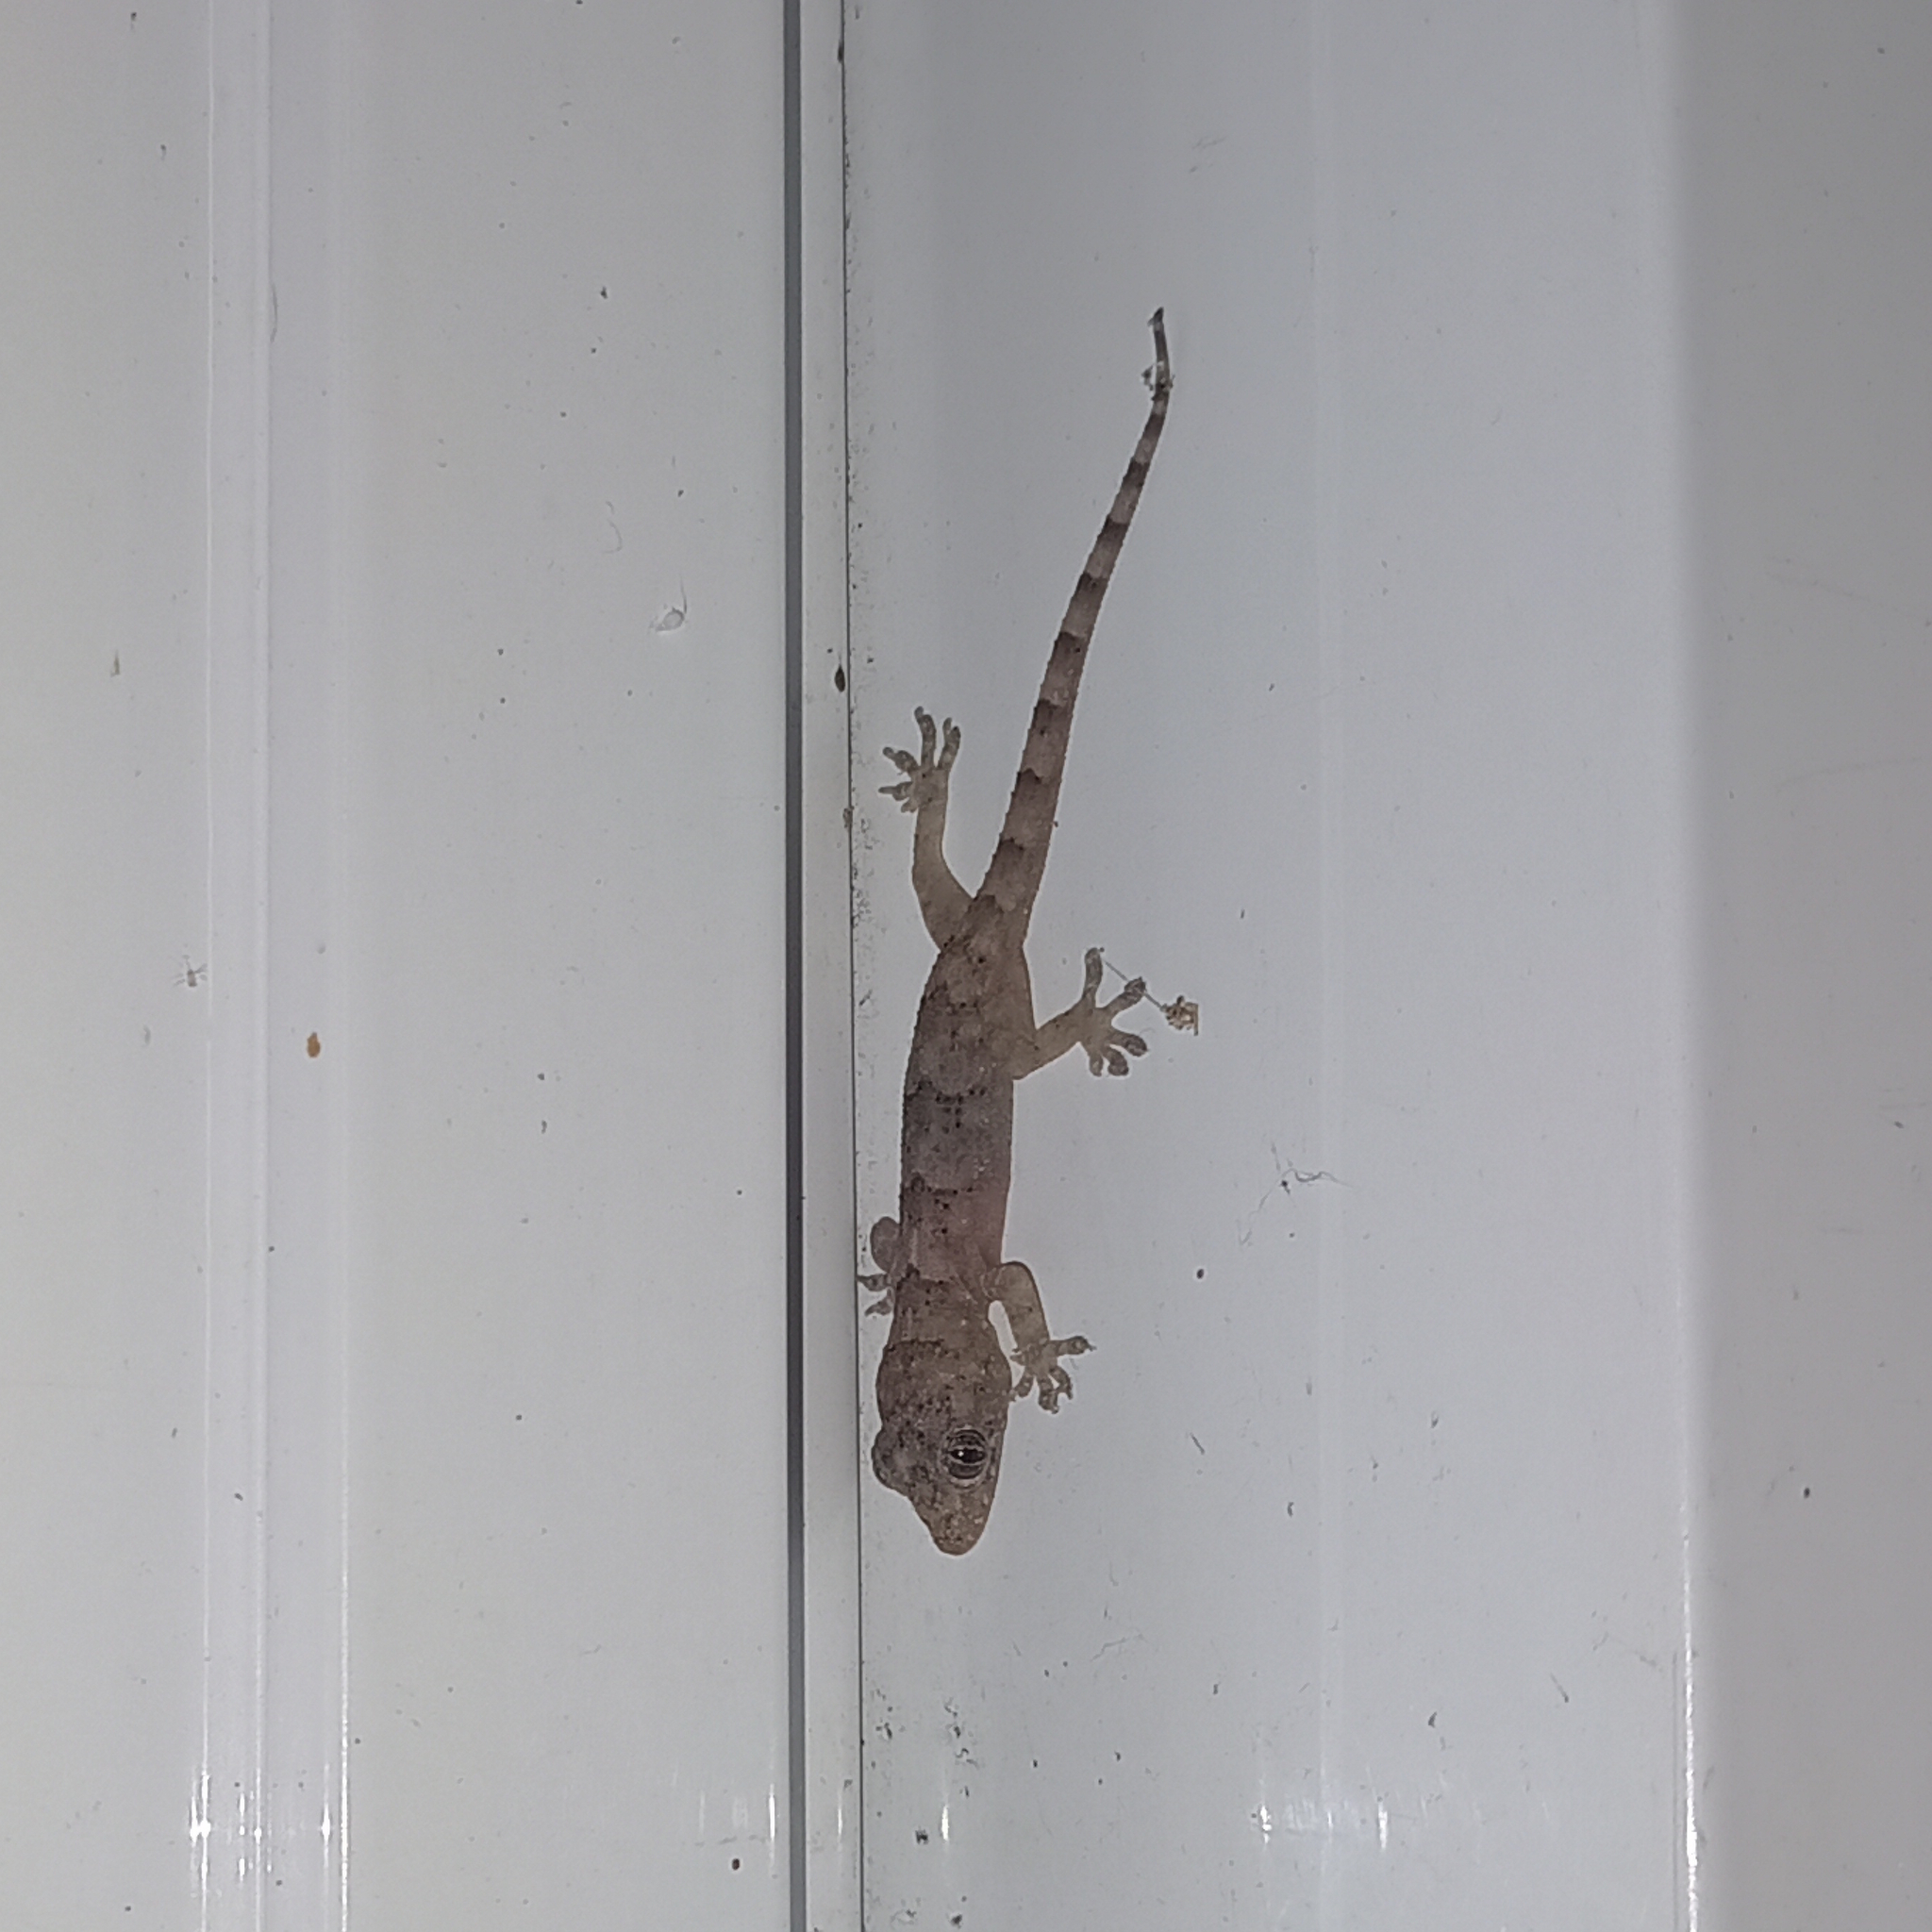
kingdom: Animalia
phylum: Chordata
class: Squamata
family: Gekkonidae
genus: Hemidactylus
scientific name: Hemidactylus mabouia
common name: House gecko
